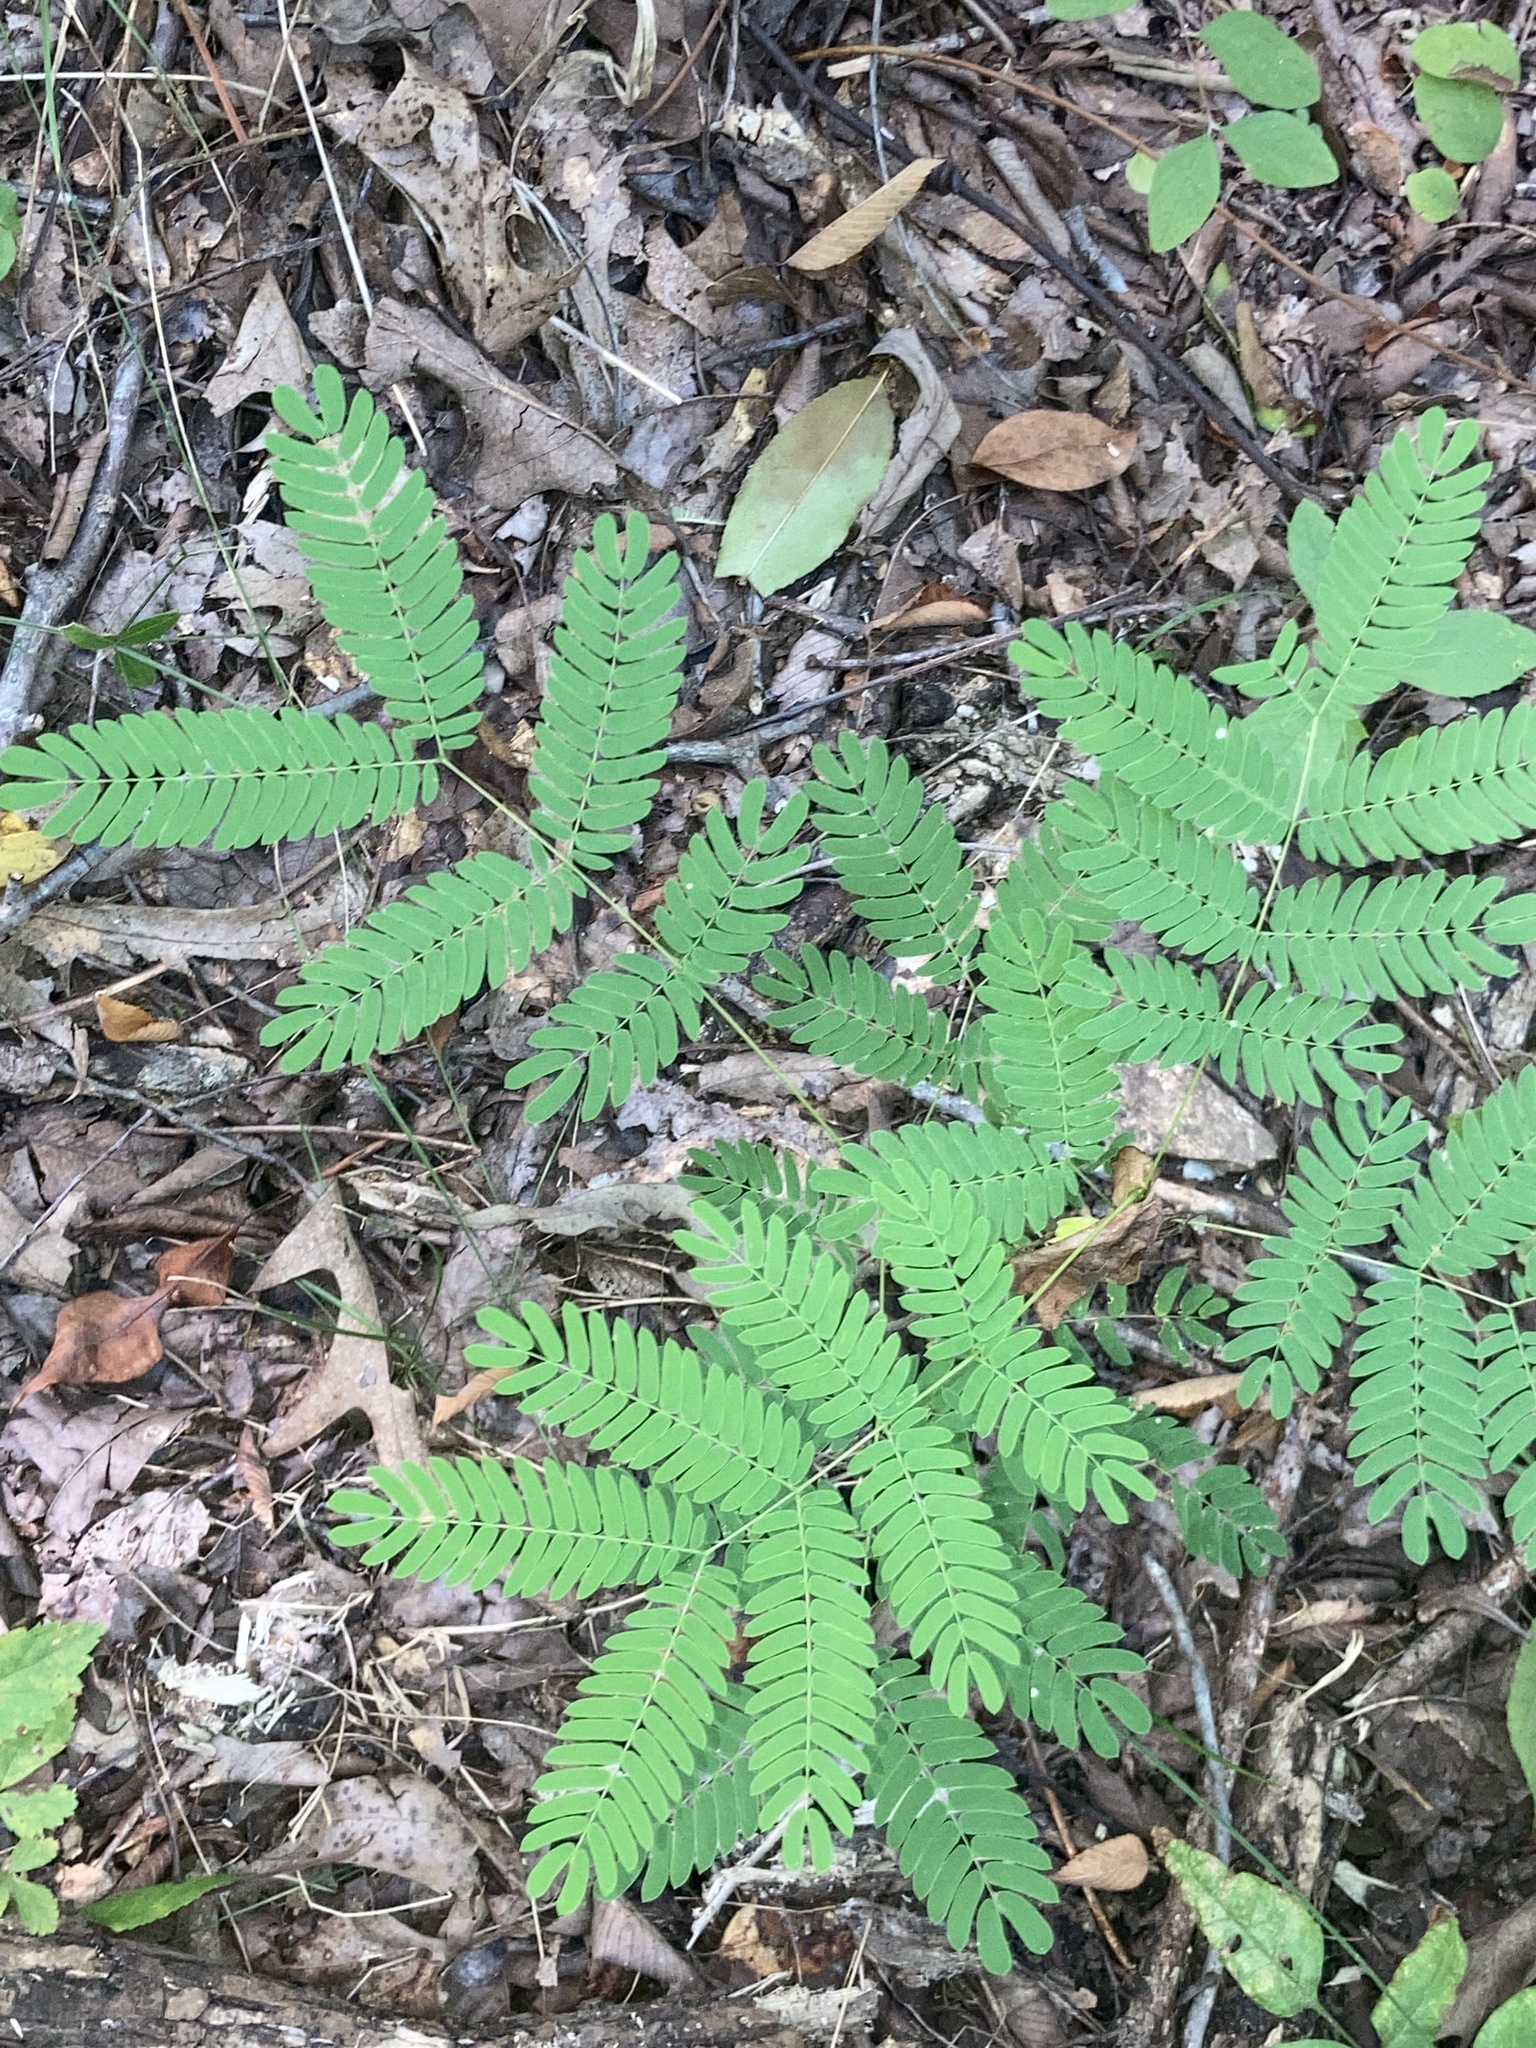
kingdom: Plantae
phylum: Tracheophyta
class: Magnoliopsida
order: Fabales
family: Fabaceae
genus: Albizia
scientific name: Albizia julibrissin
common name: Silktree
